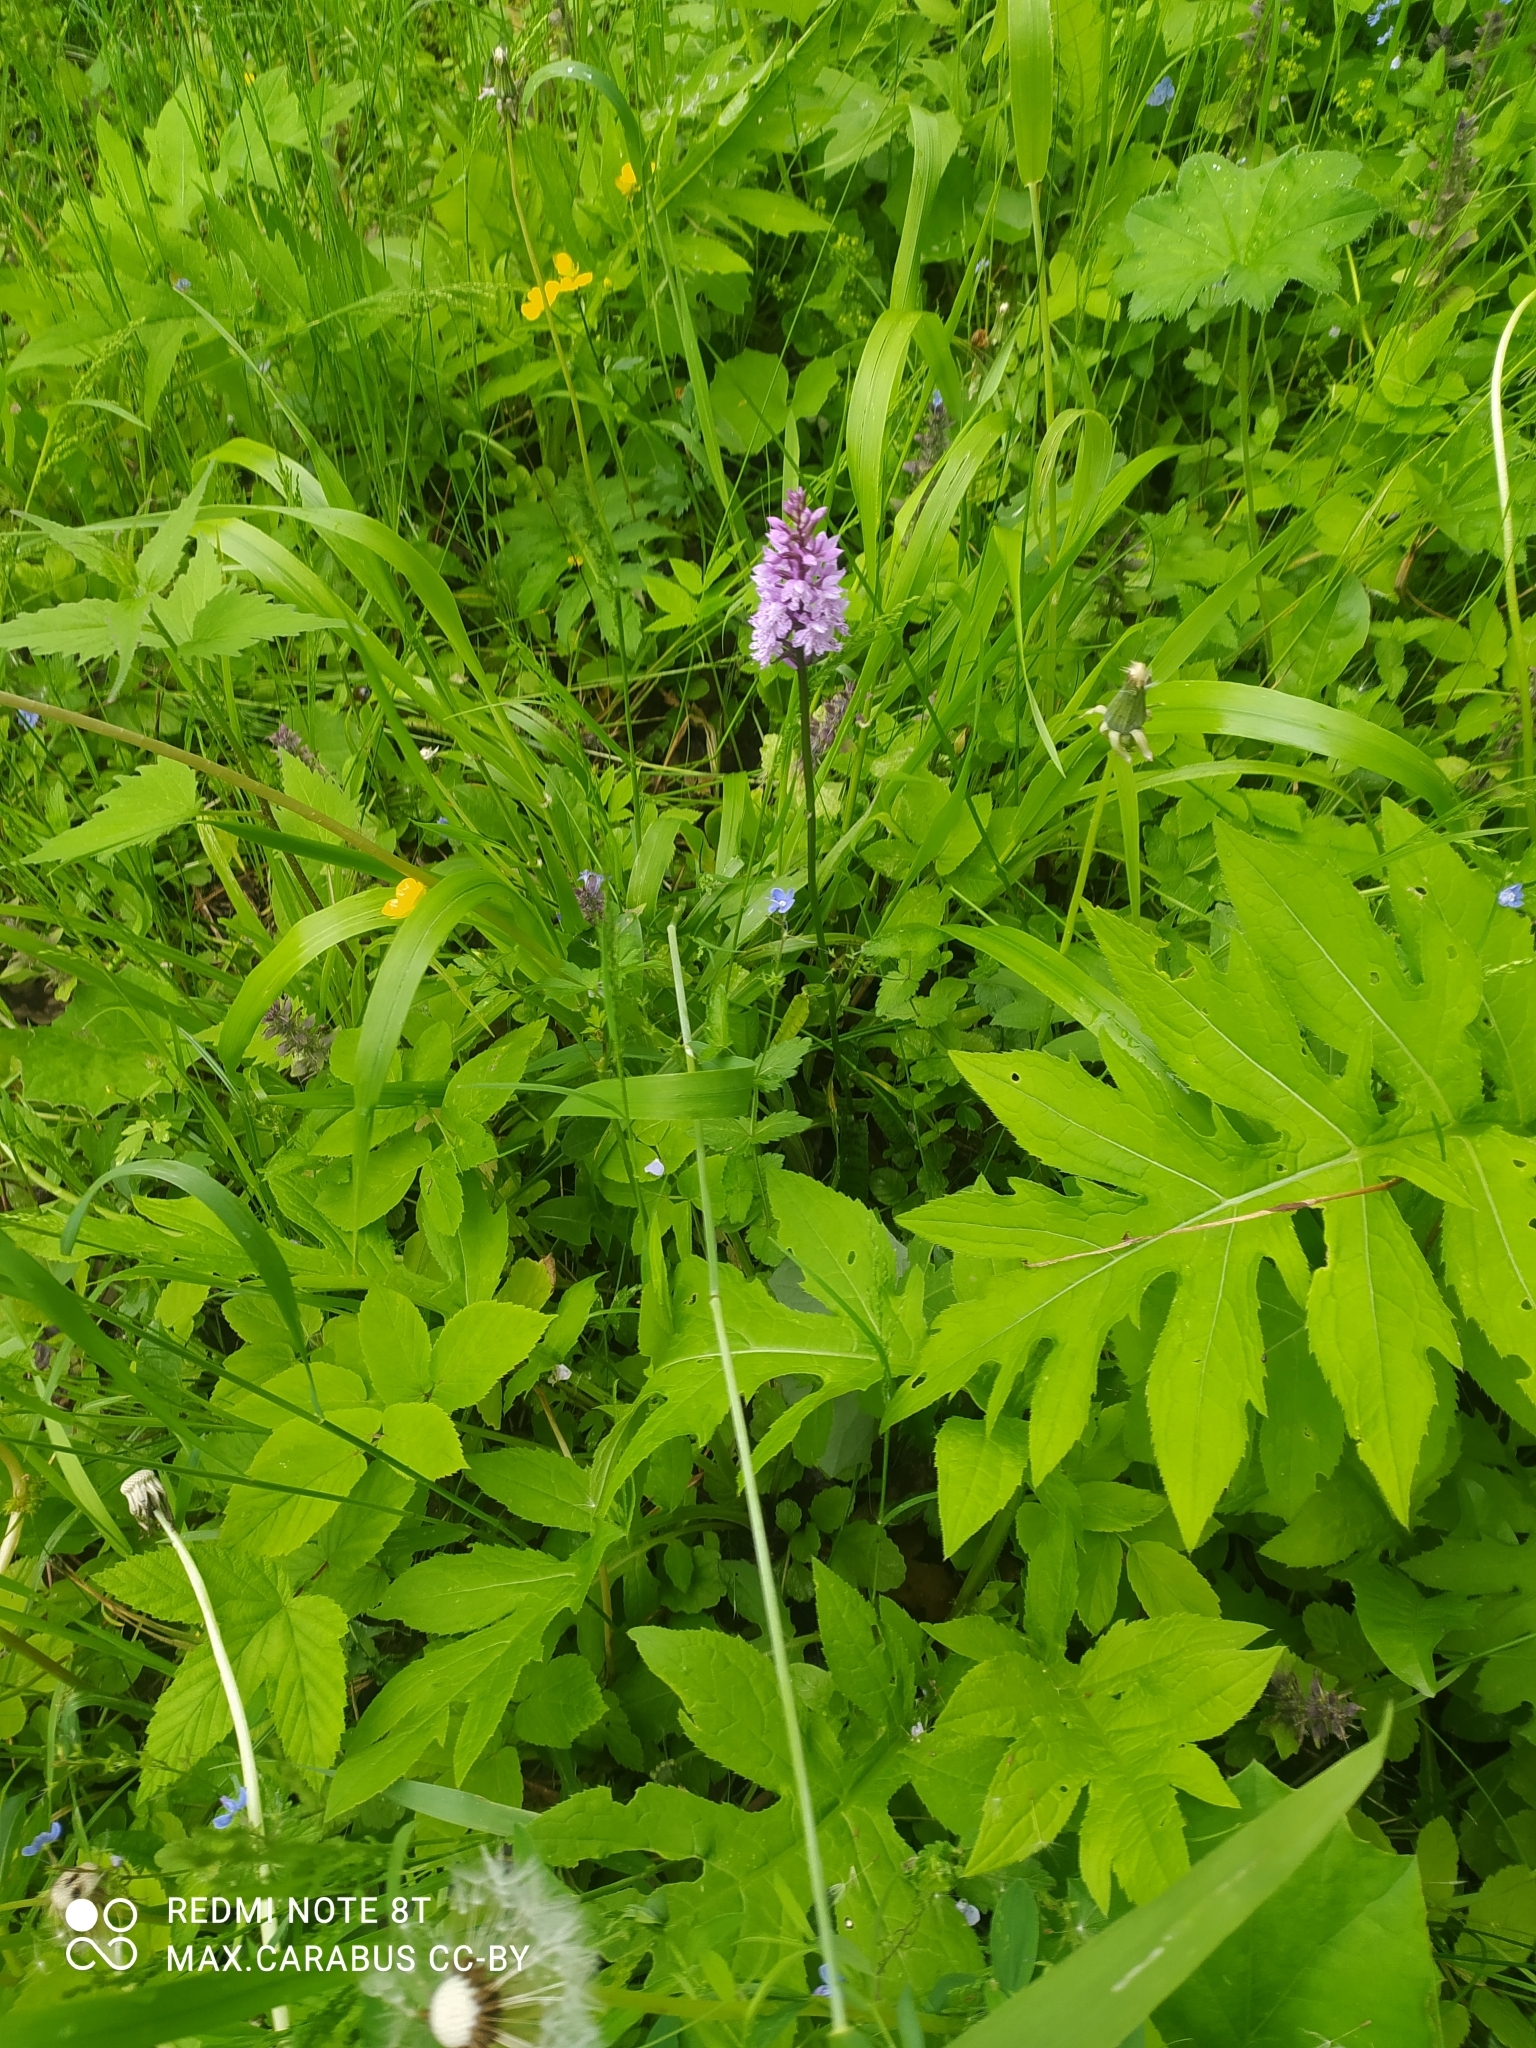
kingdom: Plantae
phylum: Tracheophyta
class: Liliopsida
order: Asparagales
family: Orchidaceae
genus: Dactylorhiza
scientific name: Dactylorhiza maculata
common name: Heath spotted-orchid
